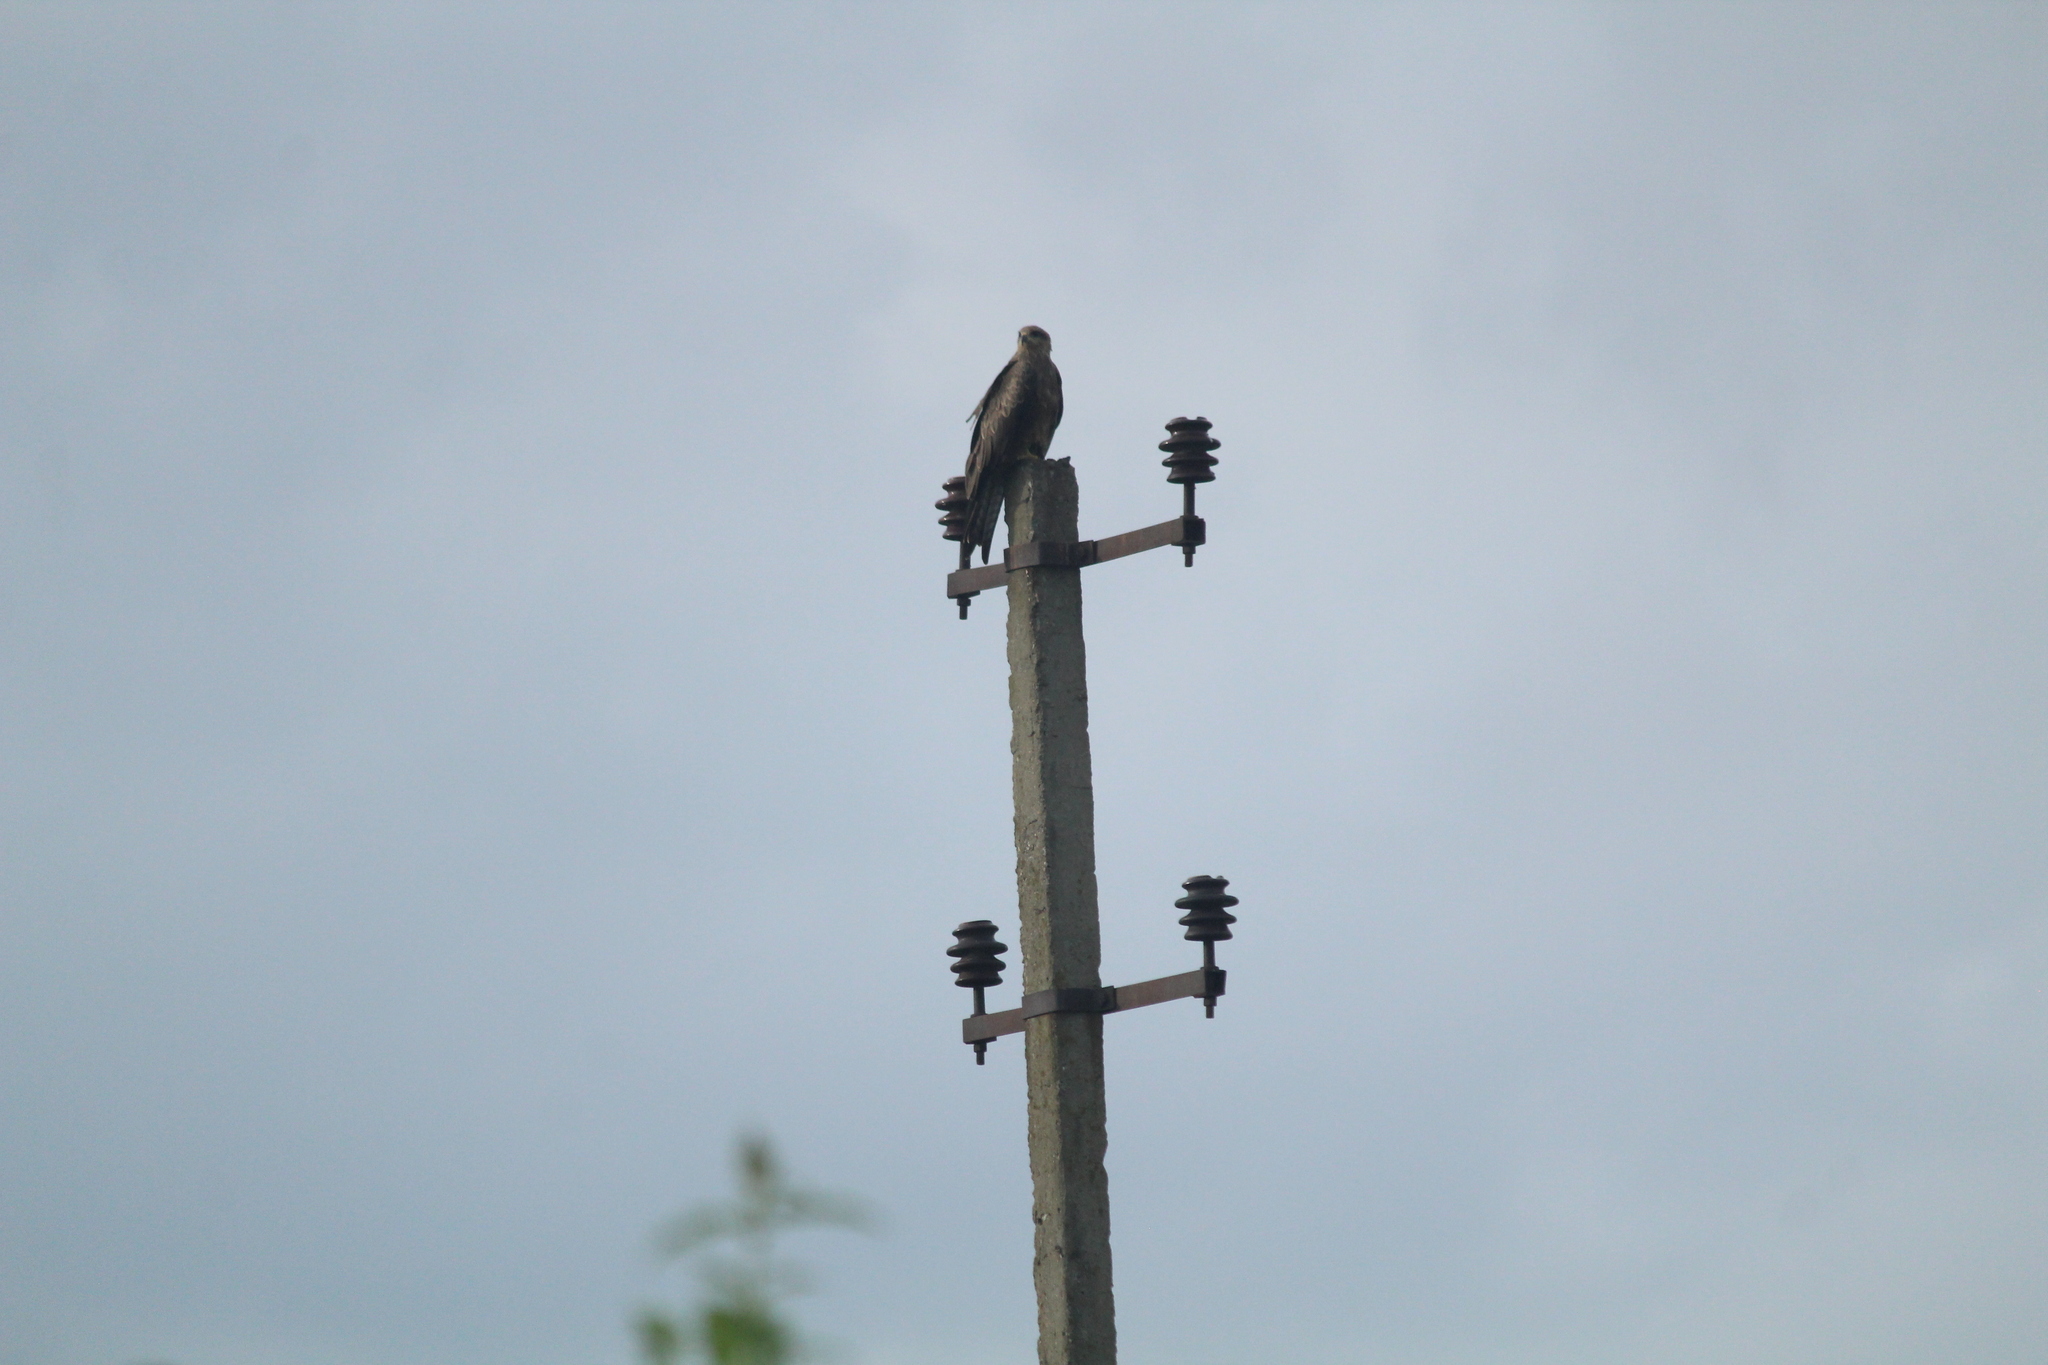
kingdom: Animalia
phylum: Chordata
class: Aves
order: Accipitriformes
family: Accipitridae
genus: Milvus
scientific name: Milvus migrans
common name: Black kite
